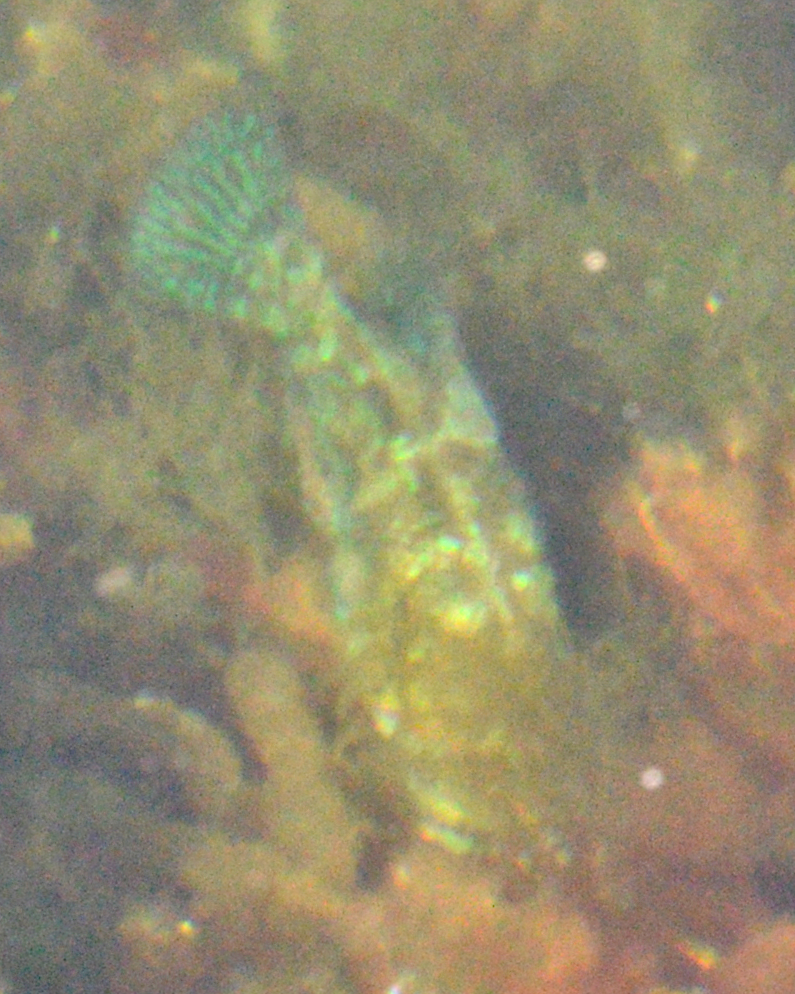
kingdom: Animalia
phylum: Chordata
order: Perciformes
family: Labridae
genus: Symphodus
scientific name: Symphodus melops
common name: Corkwing
